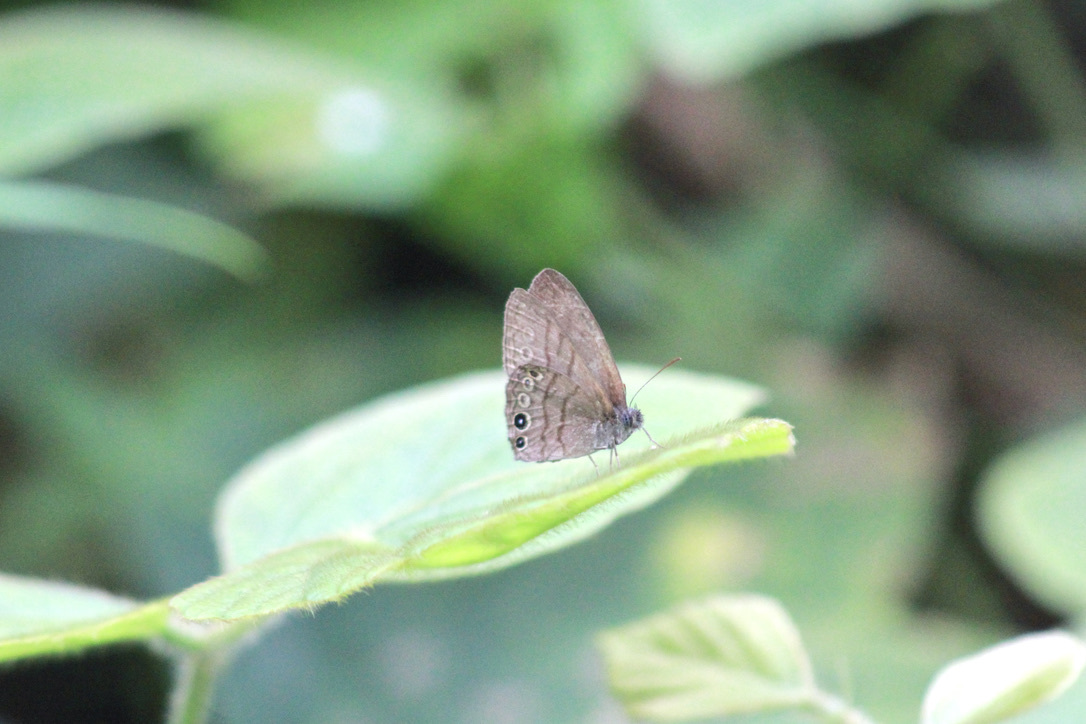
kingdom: Animalia
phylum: Arthropoda
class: Insecta
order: Lepidoptera
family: Nymphalidae
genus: Hermeuptychia
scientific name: Hermeuptychia canthe
